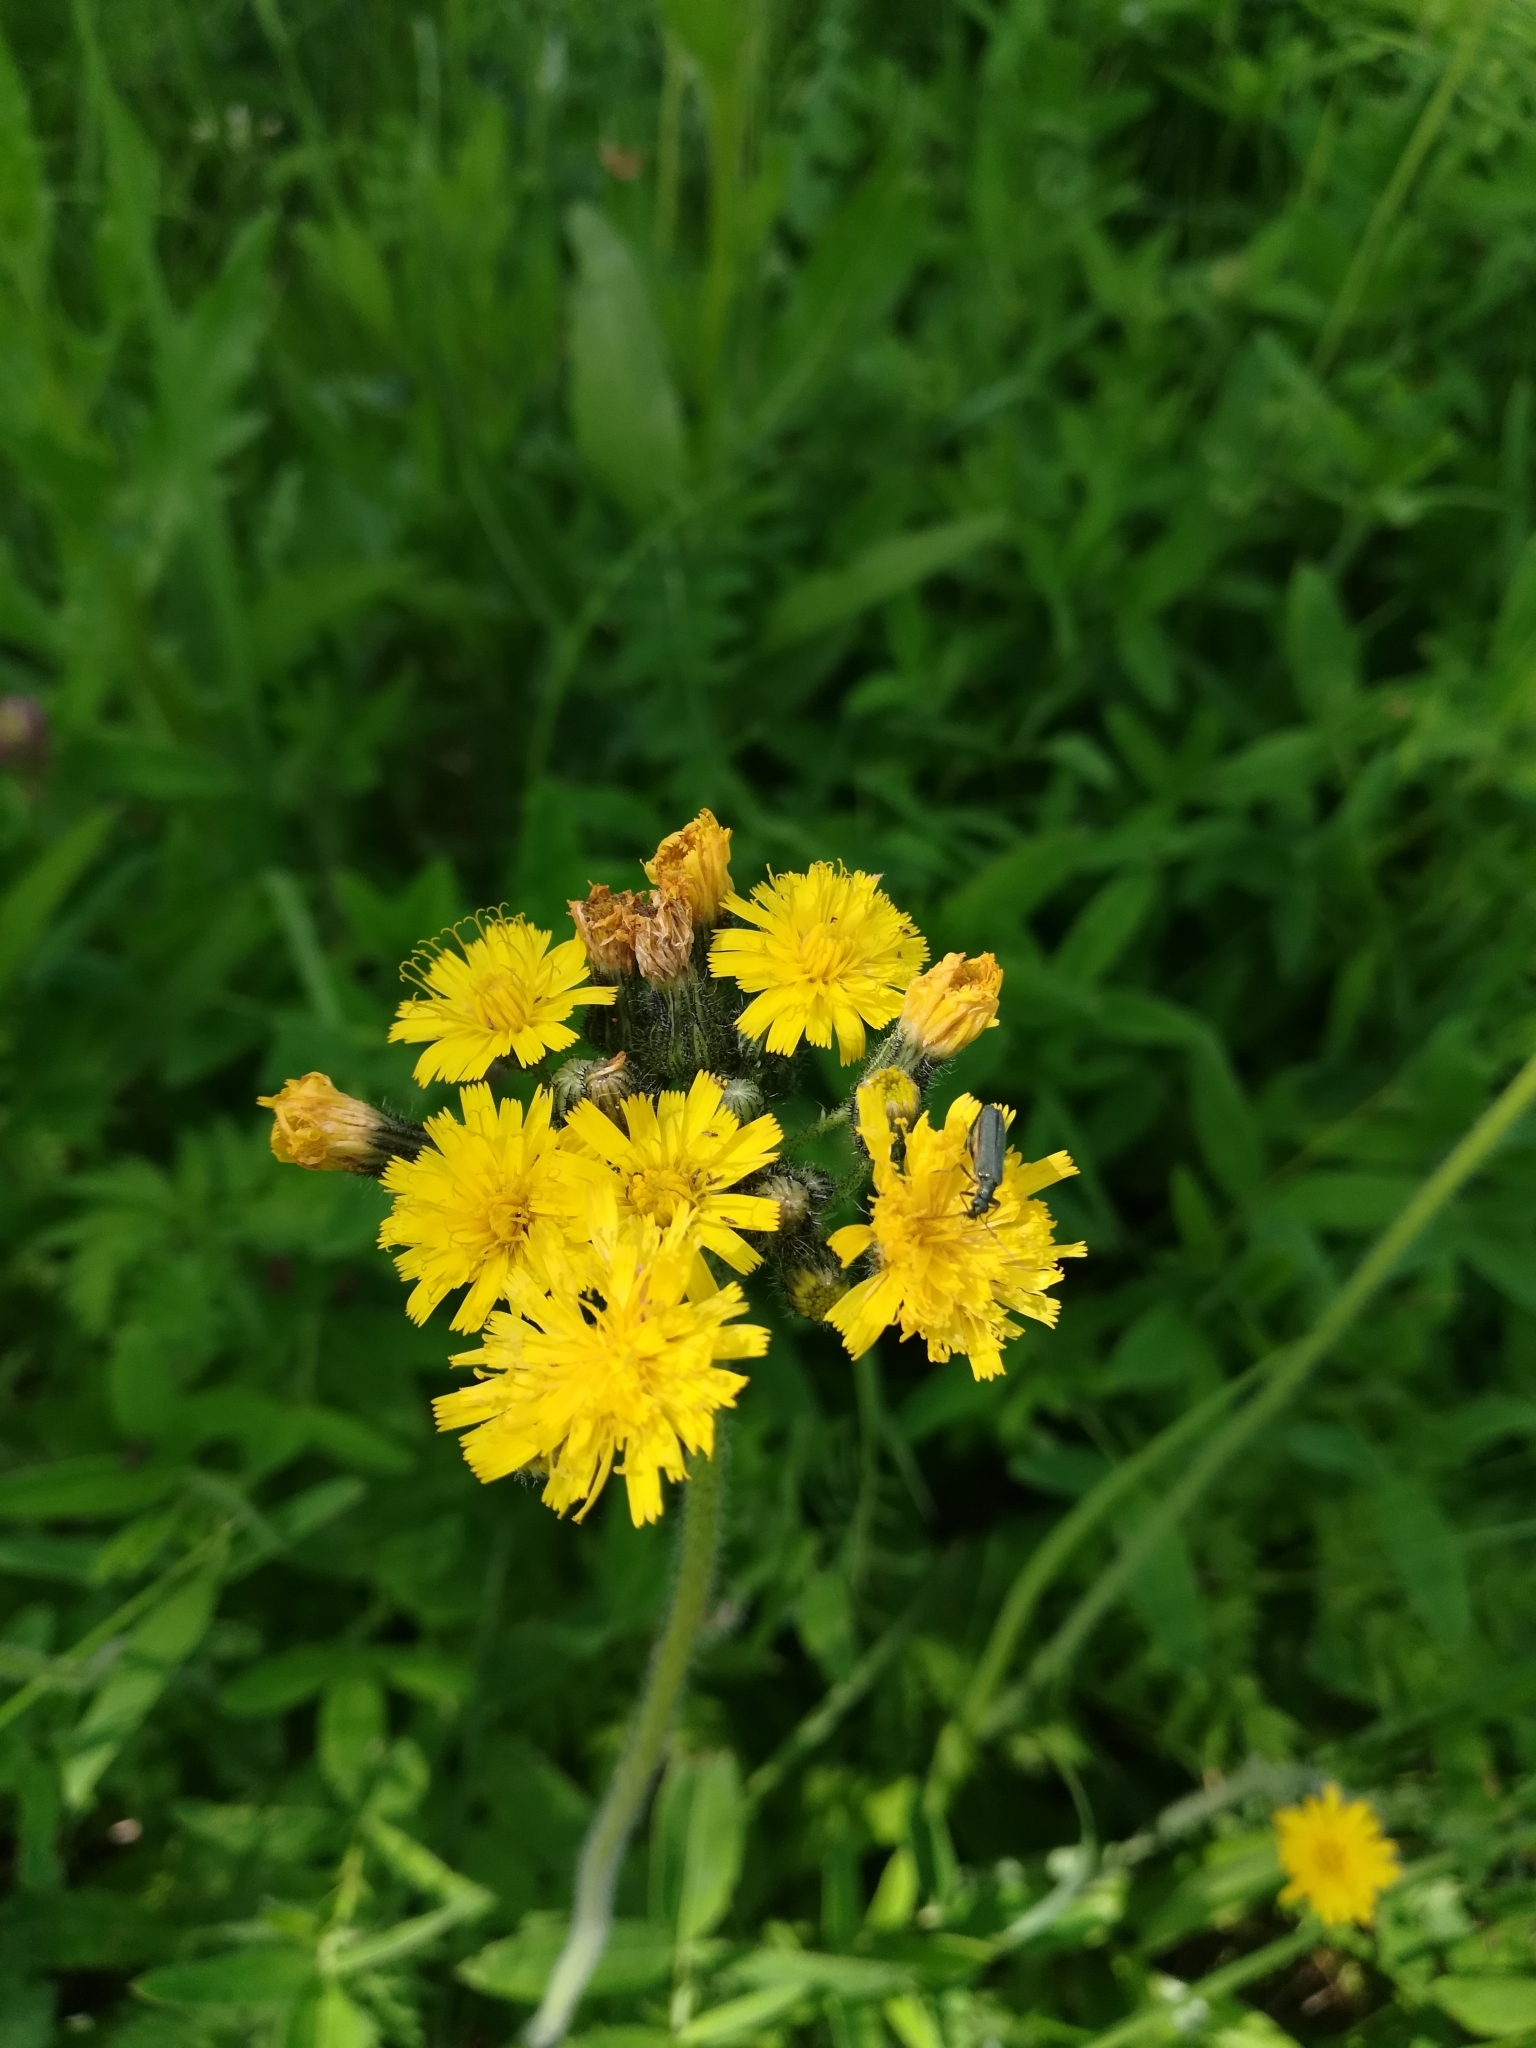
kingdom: Plantae
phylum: Tracheophyta
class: Magnoliopsida
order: Asterales
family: Asteraceae
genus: Pilosella
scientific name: Pilosella onegensis
